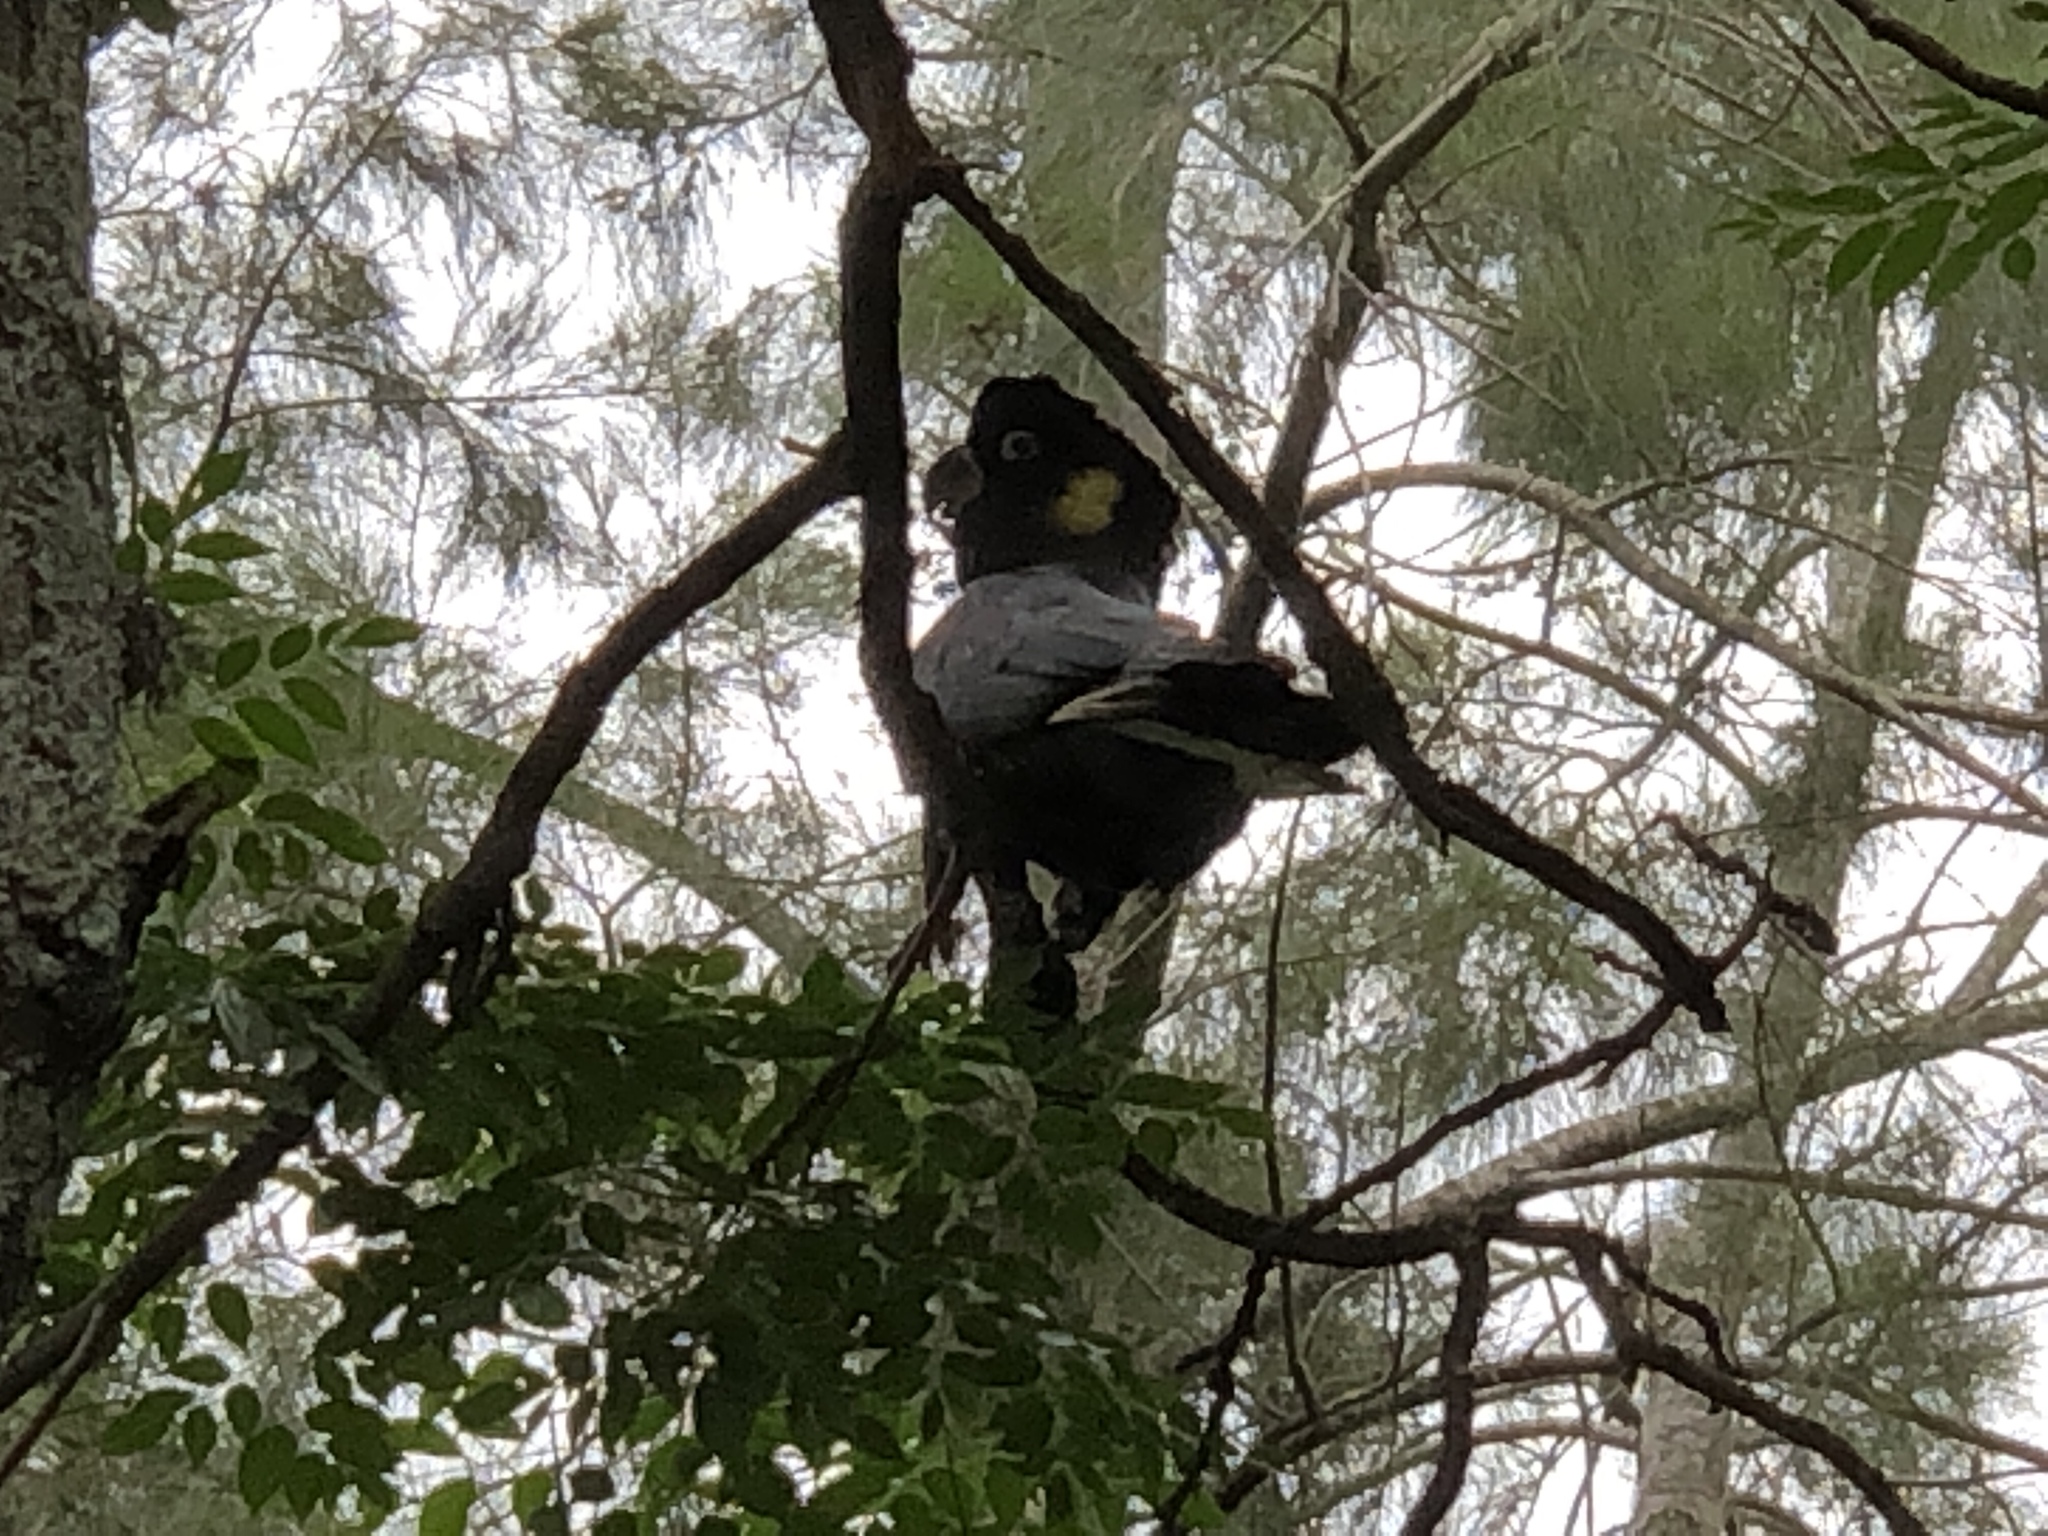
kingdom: Animalia
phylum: Chordata
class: Aves
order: Psittaciformes
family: Cacatuidae
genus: Zanda
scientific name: Zanda funerea
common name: Yellow-tailed black-cockatoo
